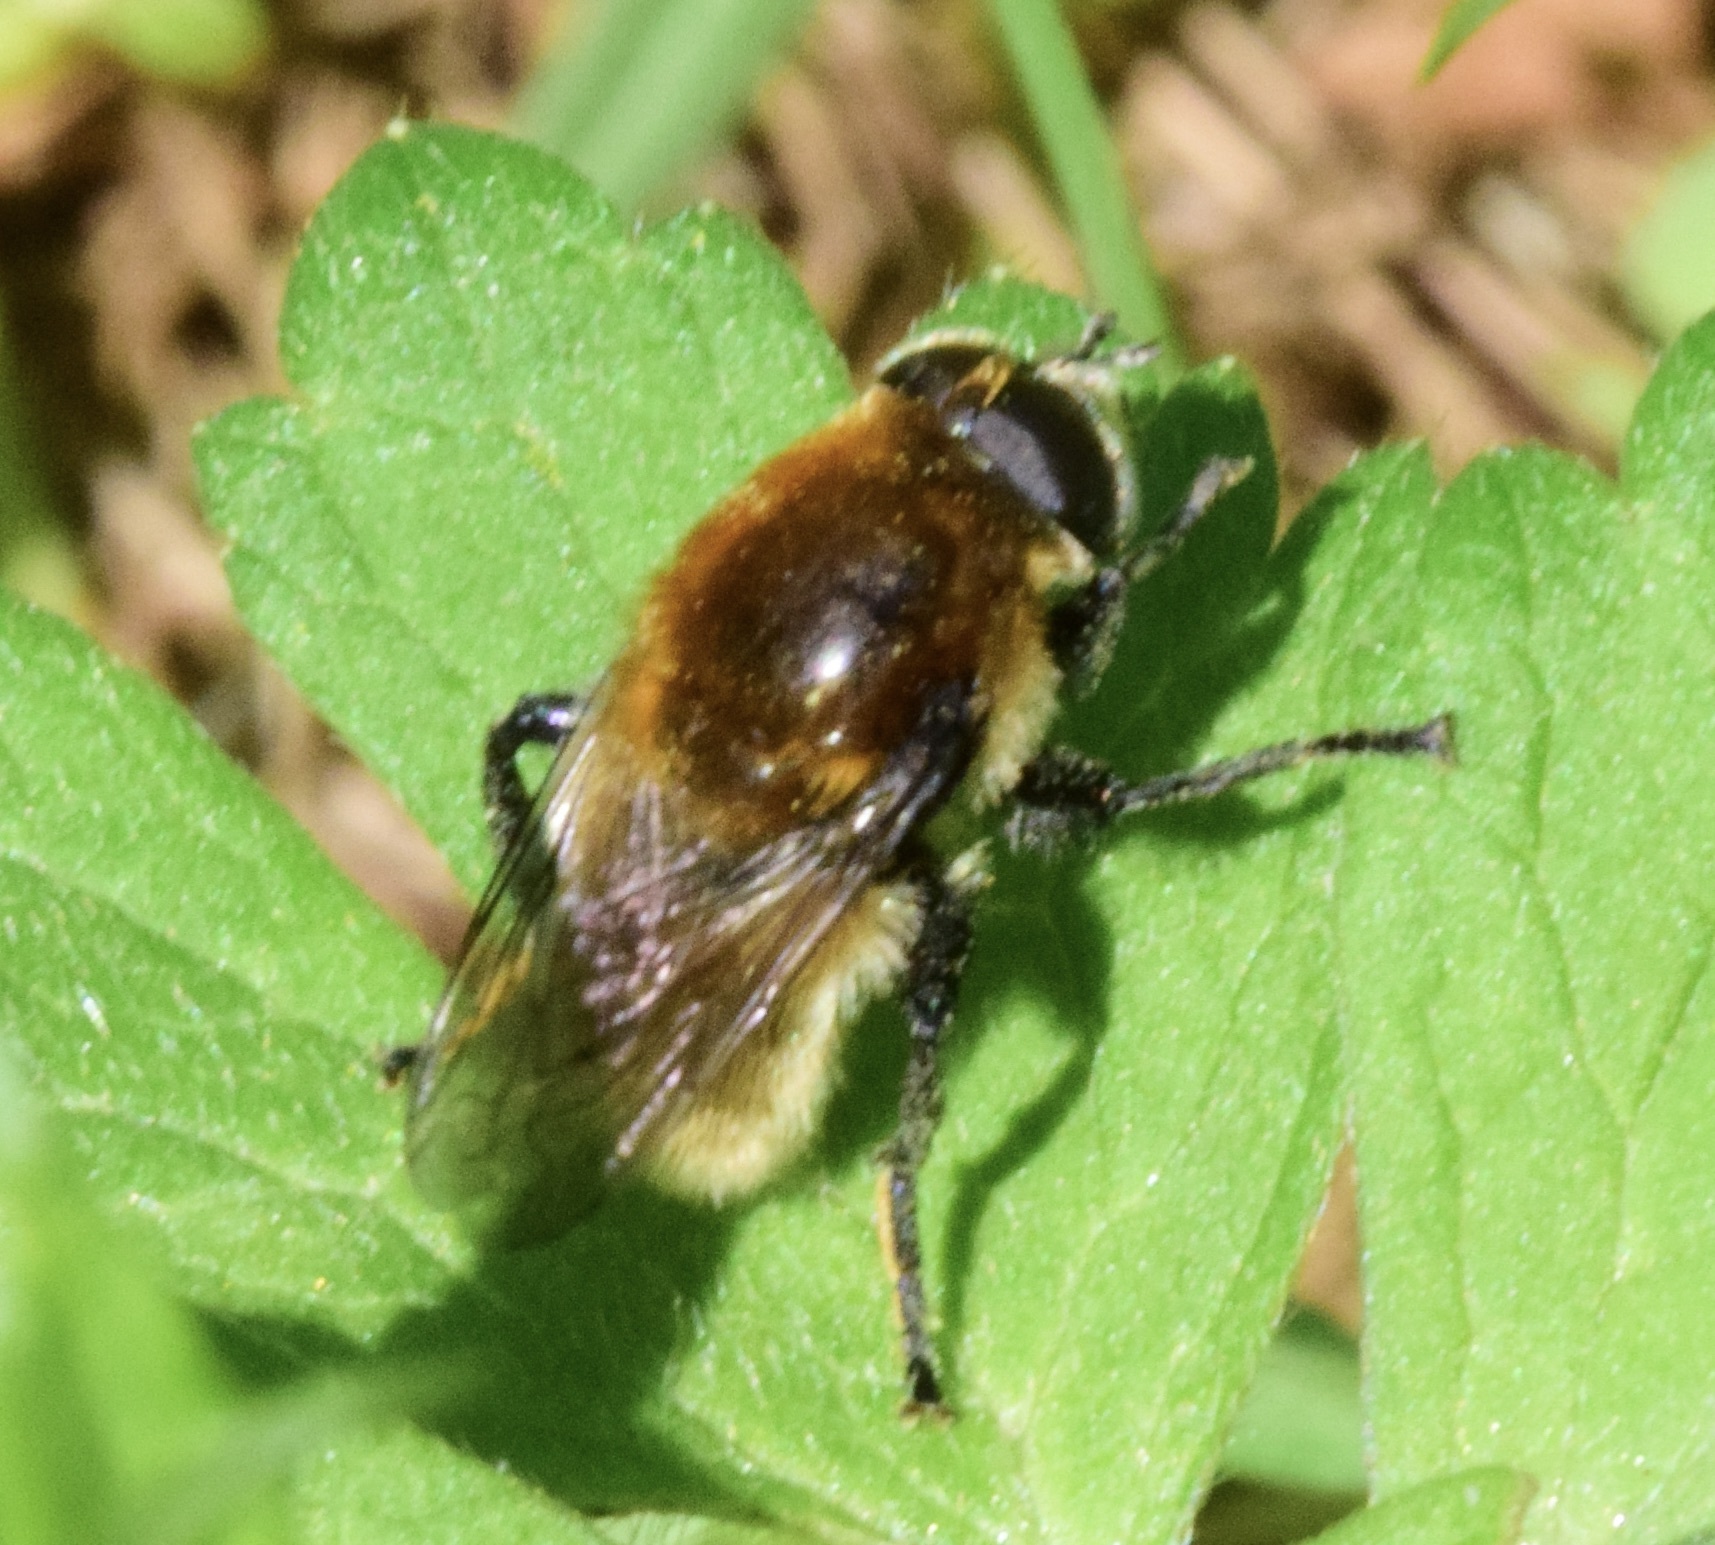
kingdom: Animalia
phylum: Arthropoda
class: Insecta
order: Diptera
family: Syrphidae
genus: Merodon
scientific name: Merodon equestris
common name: Greater bulb-fly
